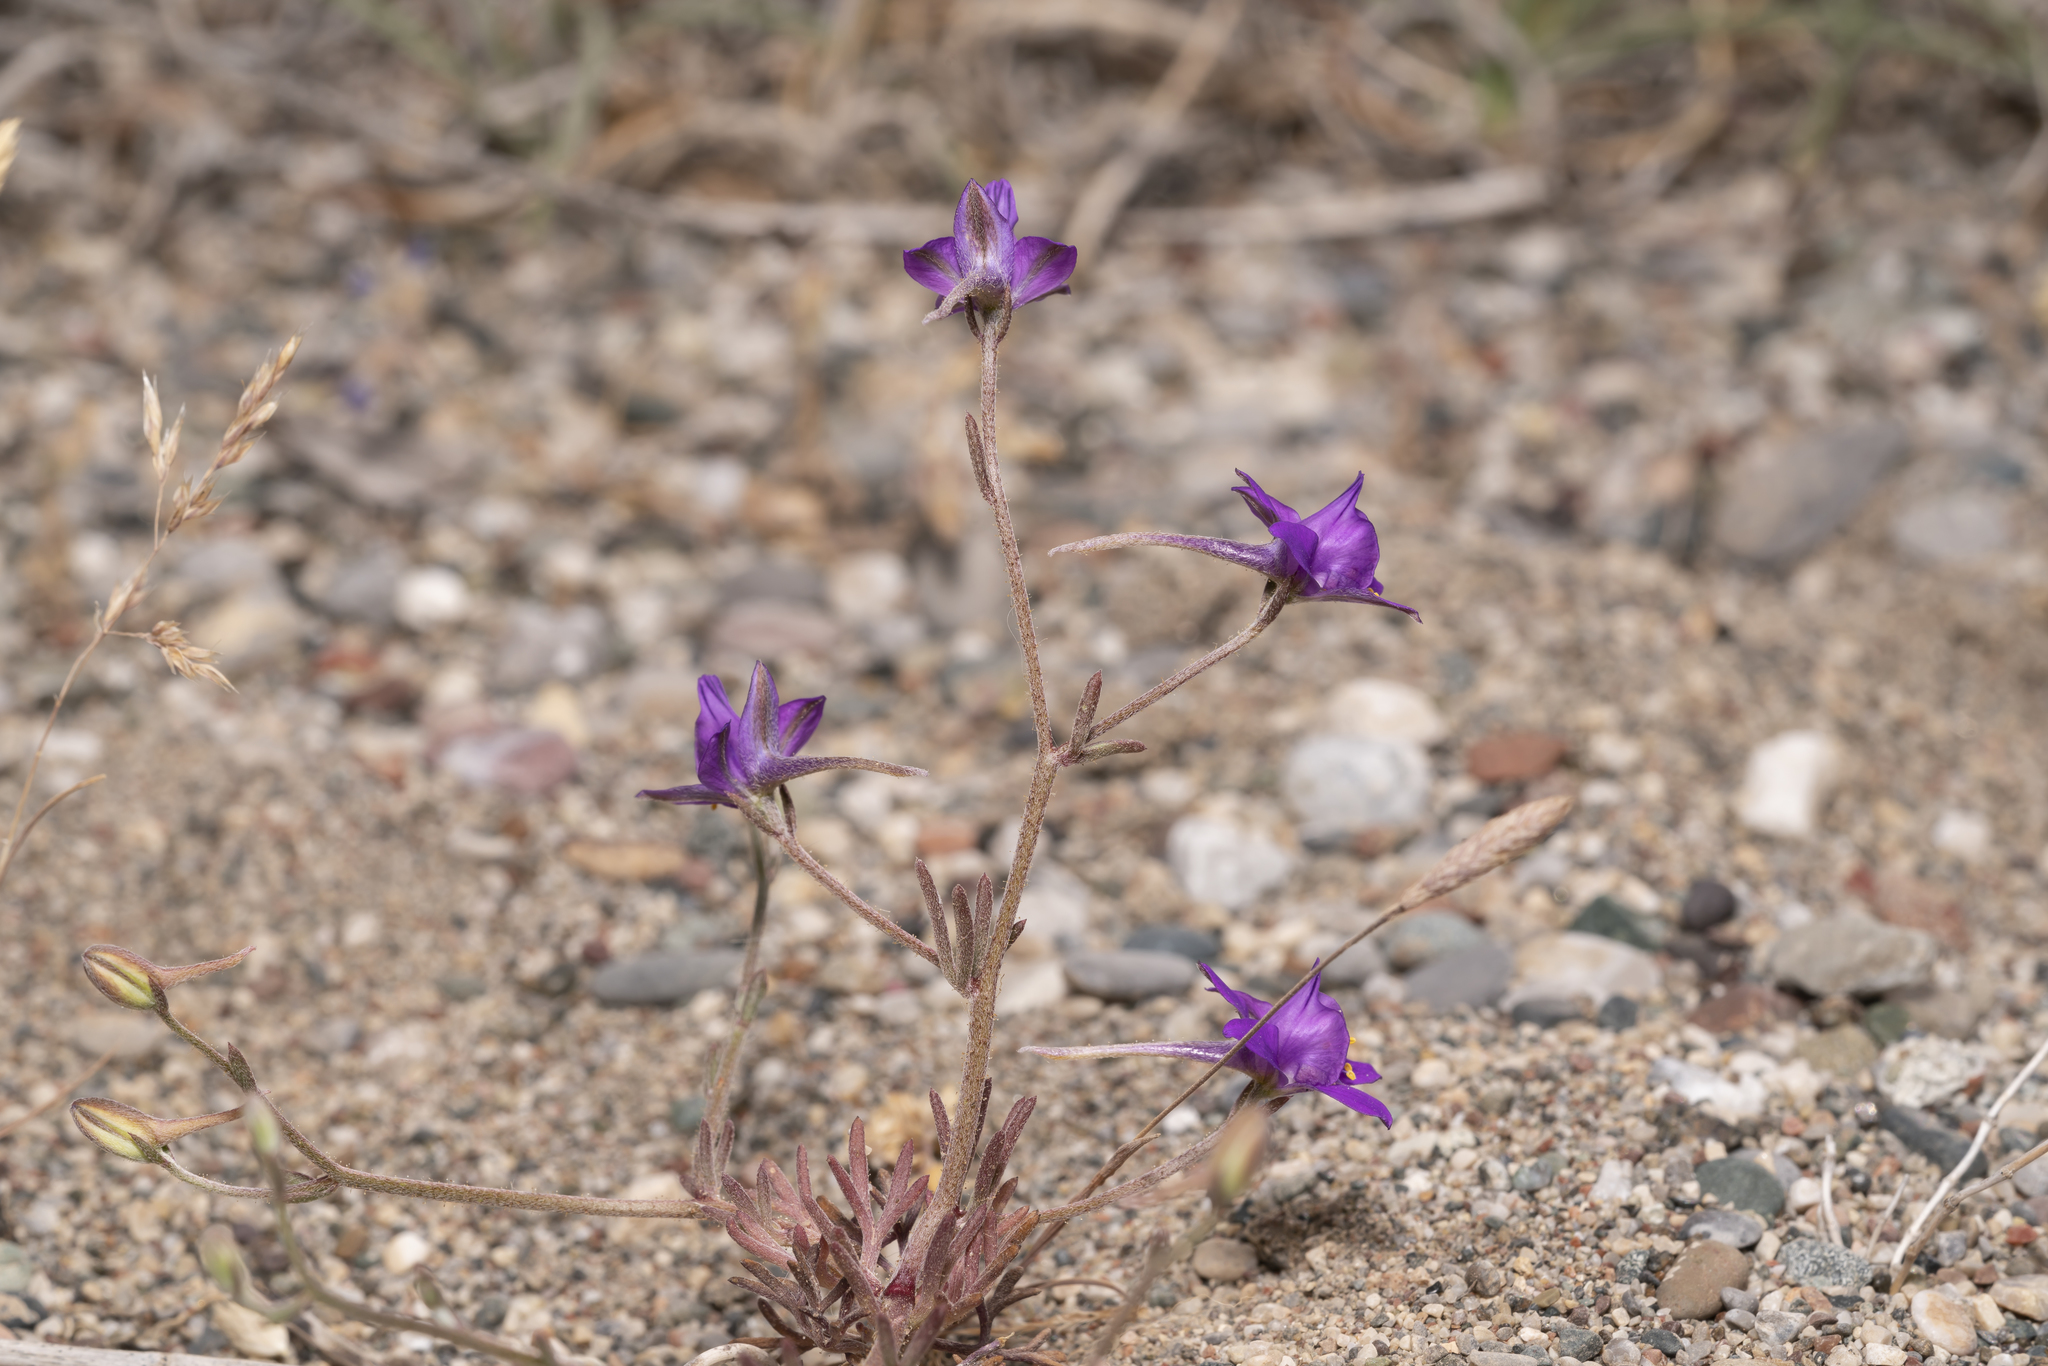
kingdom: Plantae
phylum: Tracheophyta
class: Magnoliopsida
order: Ranunculales
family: Ranunculaceae
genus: Delphinium
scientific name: Delphinium arenarium
